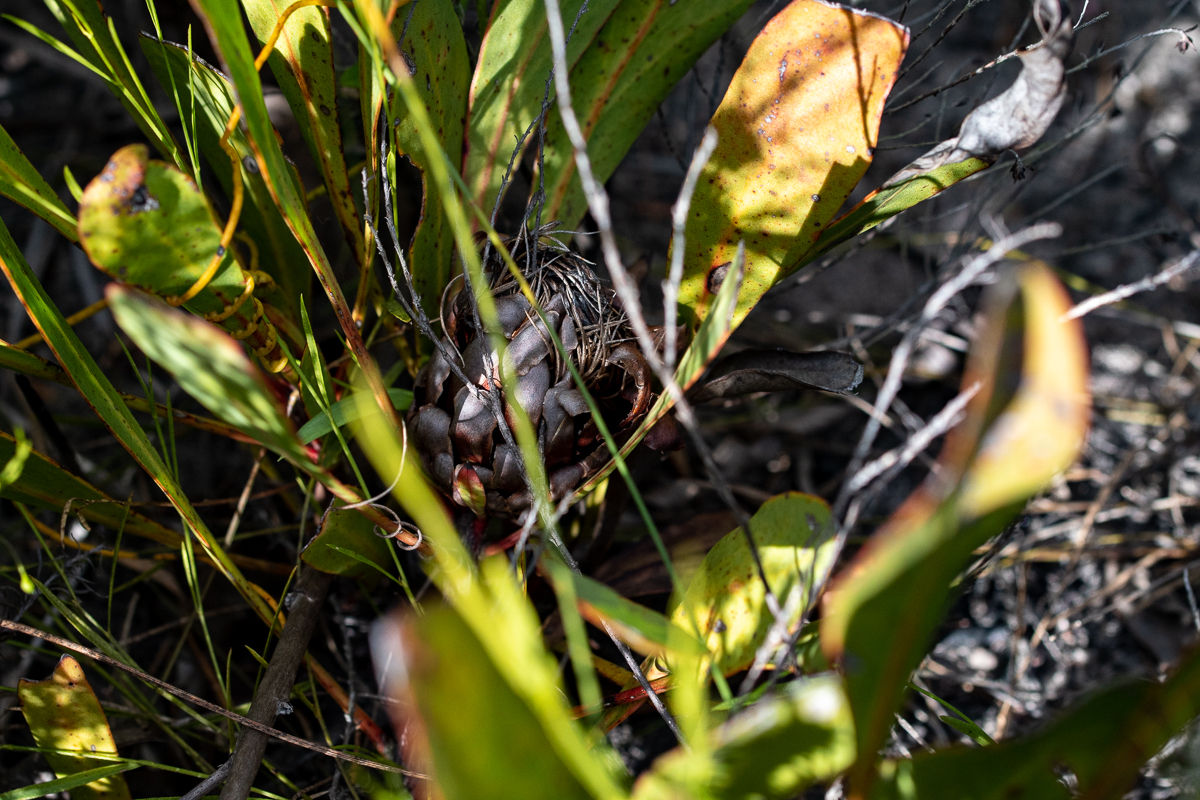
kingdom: Plantae
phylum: Tracheophyta
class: Magnoliopsida
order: Proteales
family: Proteaceae
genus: Protea
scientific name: Protea acaulos
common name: Common ground sugarbush
